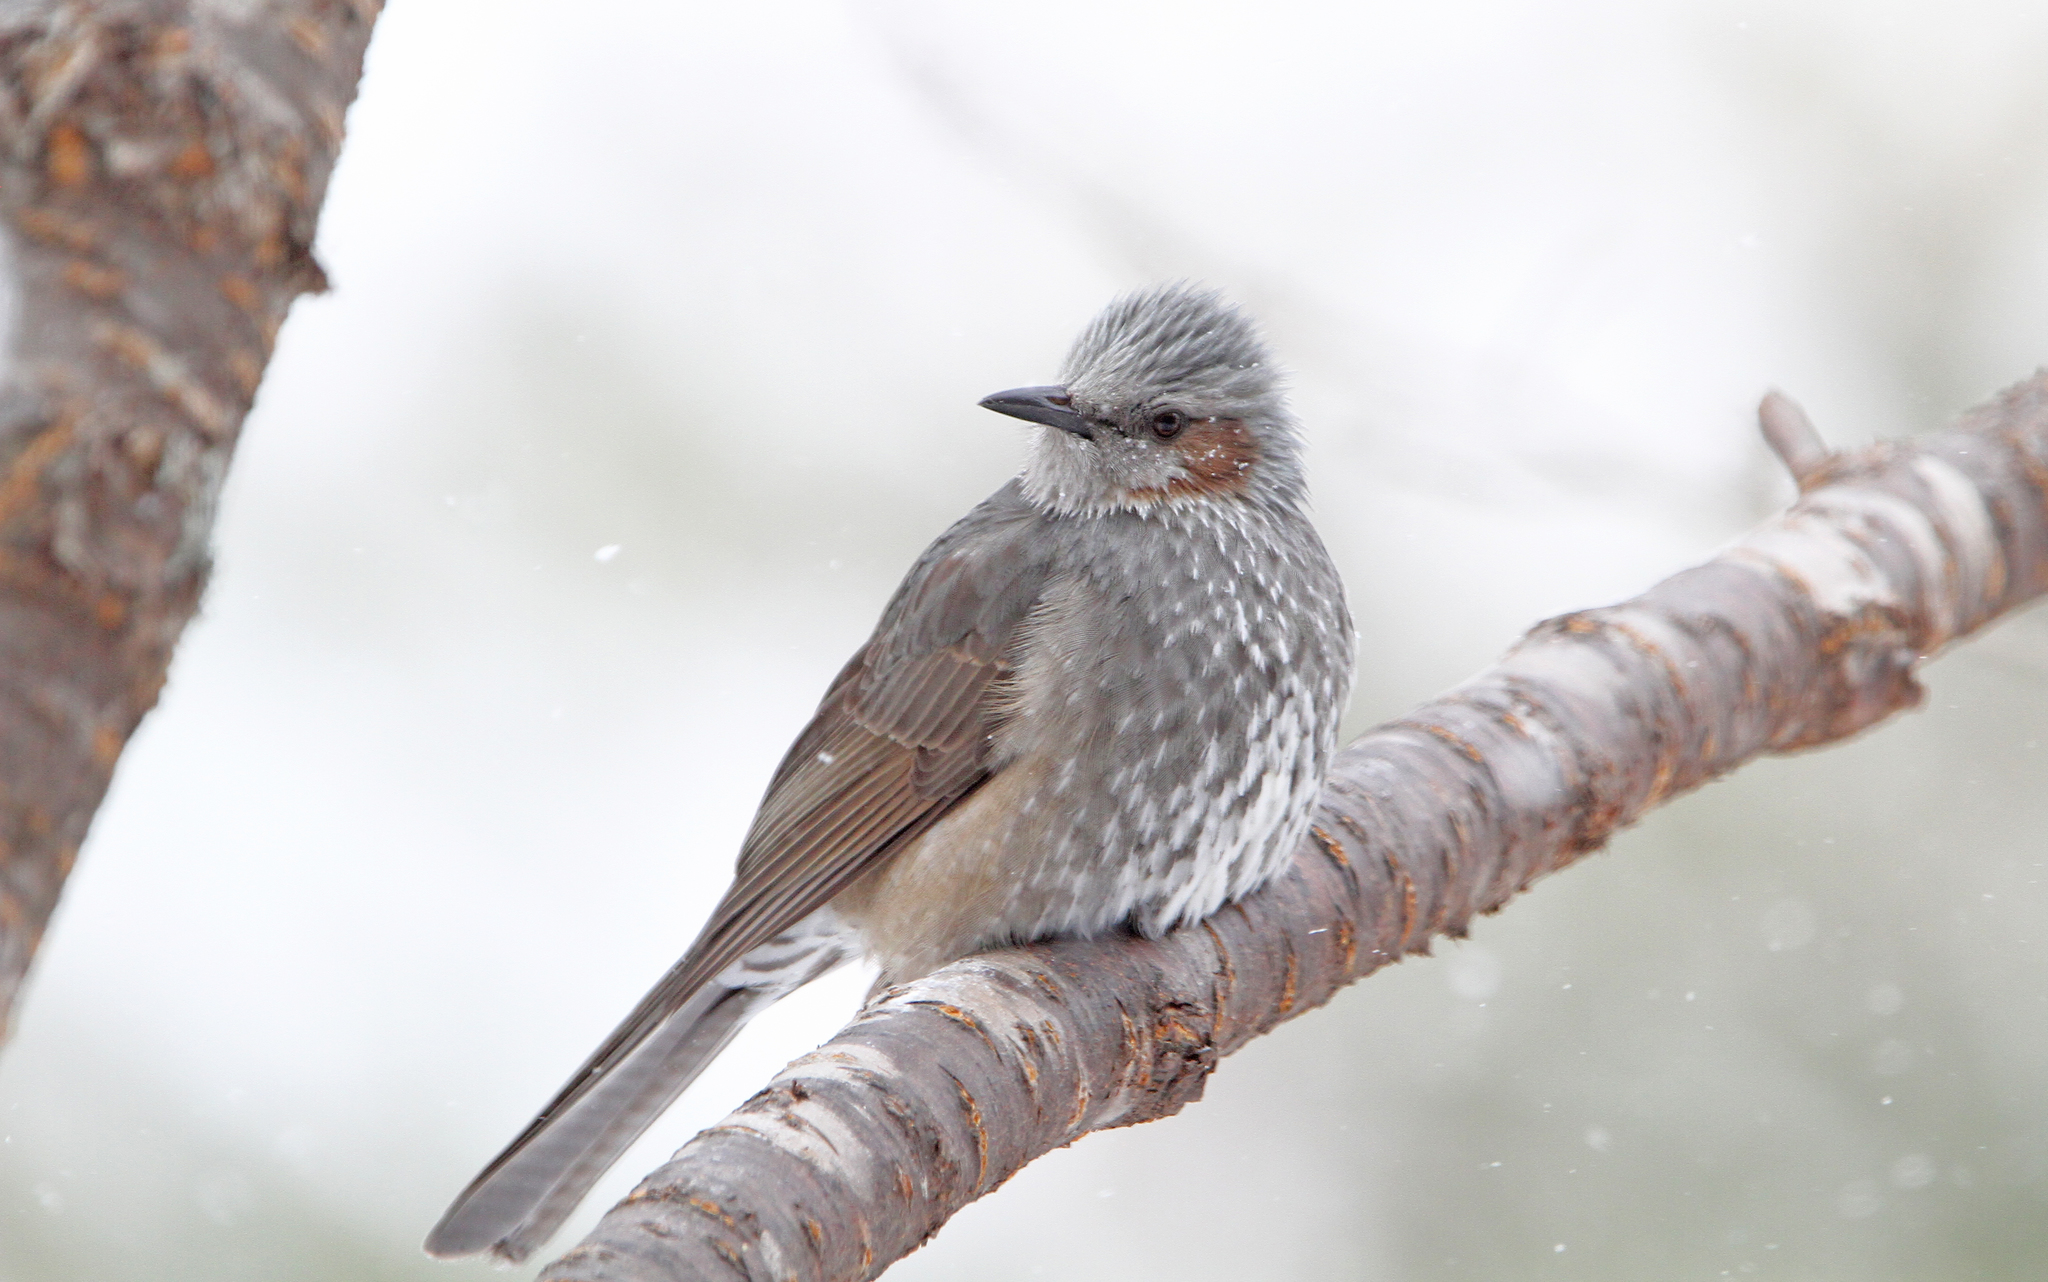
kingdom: Animalia
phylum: Chordata
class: Aves
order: Passeriformes
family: Pycnonotidae
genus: Hypsipetes
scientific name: Hypsipetes amaurotis
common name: Brown-eared bulbul
